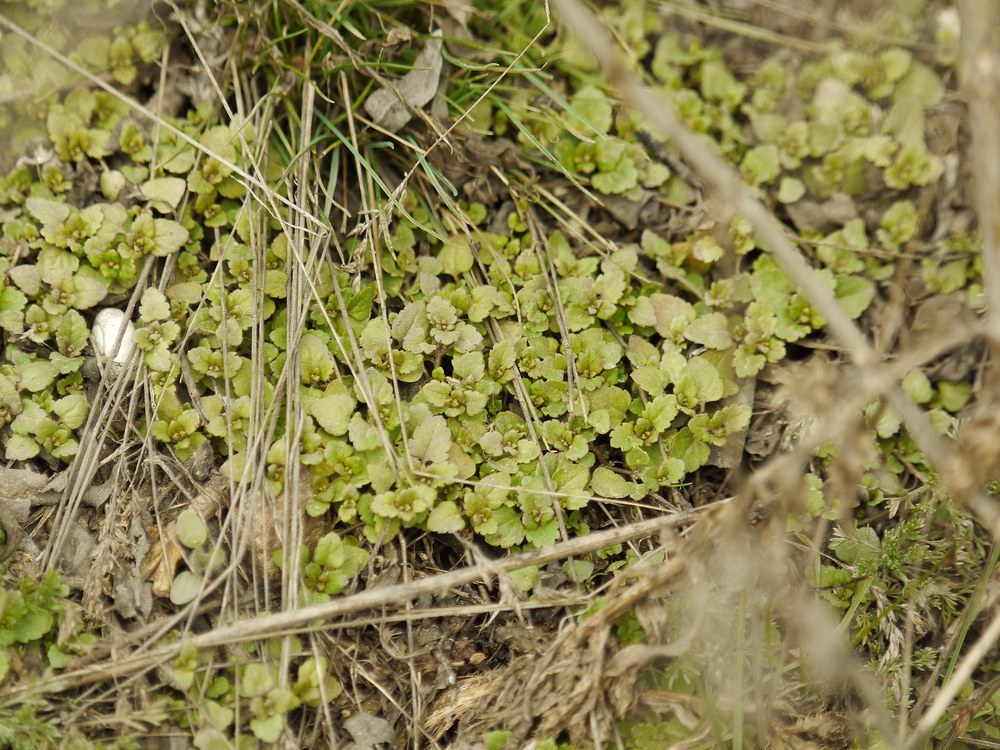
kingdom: Plantae
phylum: Tracheophyta
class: Magnoliopsida
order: Lamiales
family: Plantaginaceae
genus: Veronica
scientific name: Veronica arvensis
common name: Corn speedwell
